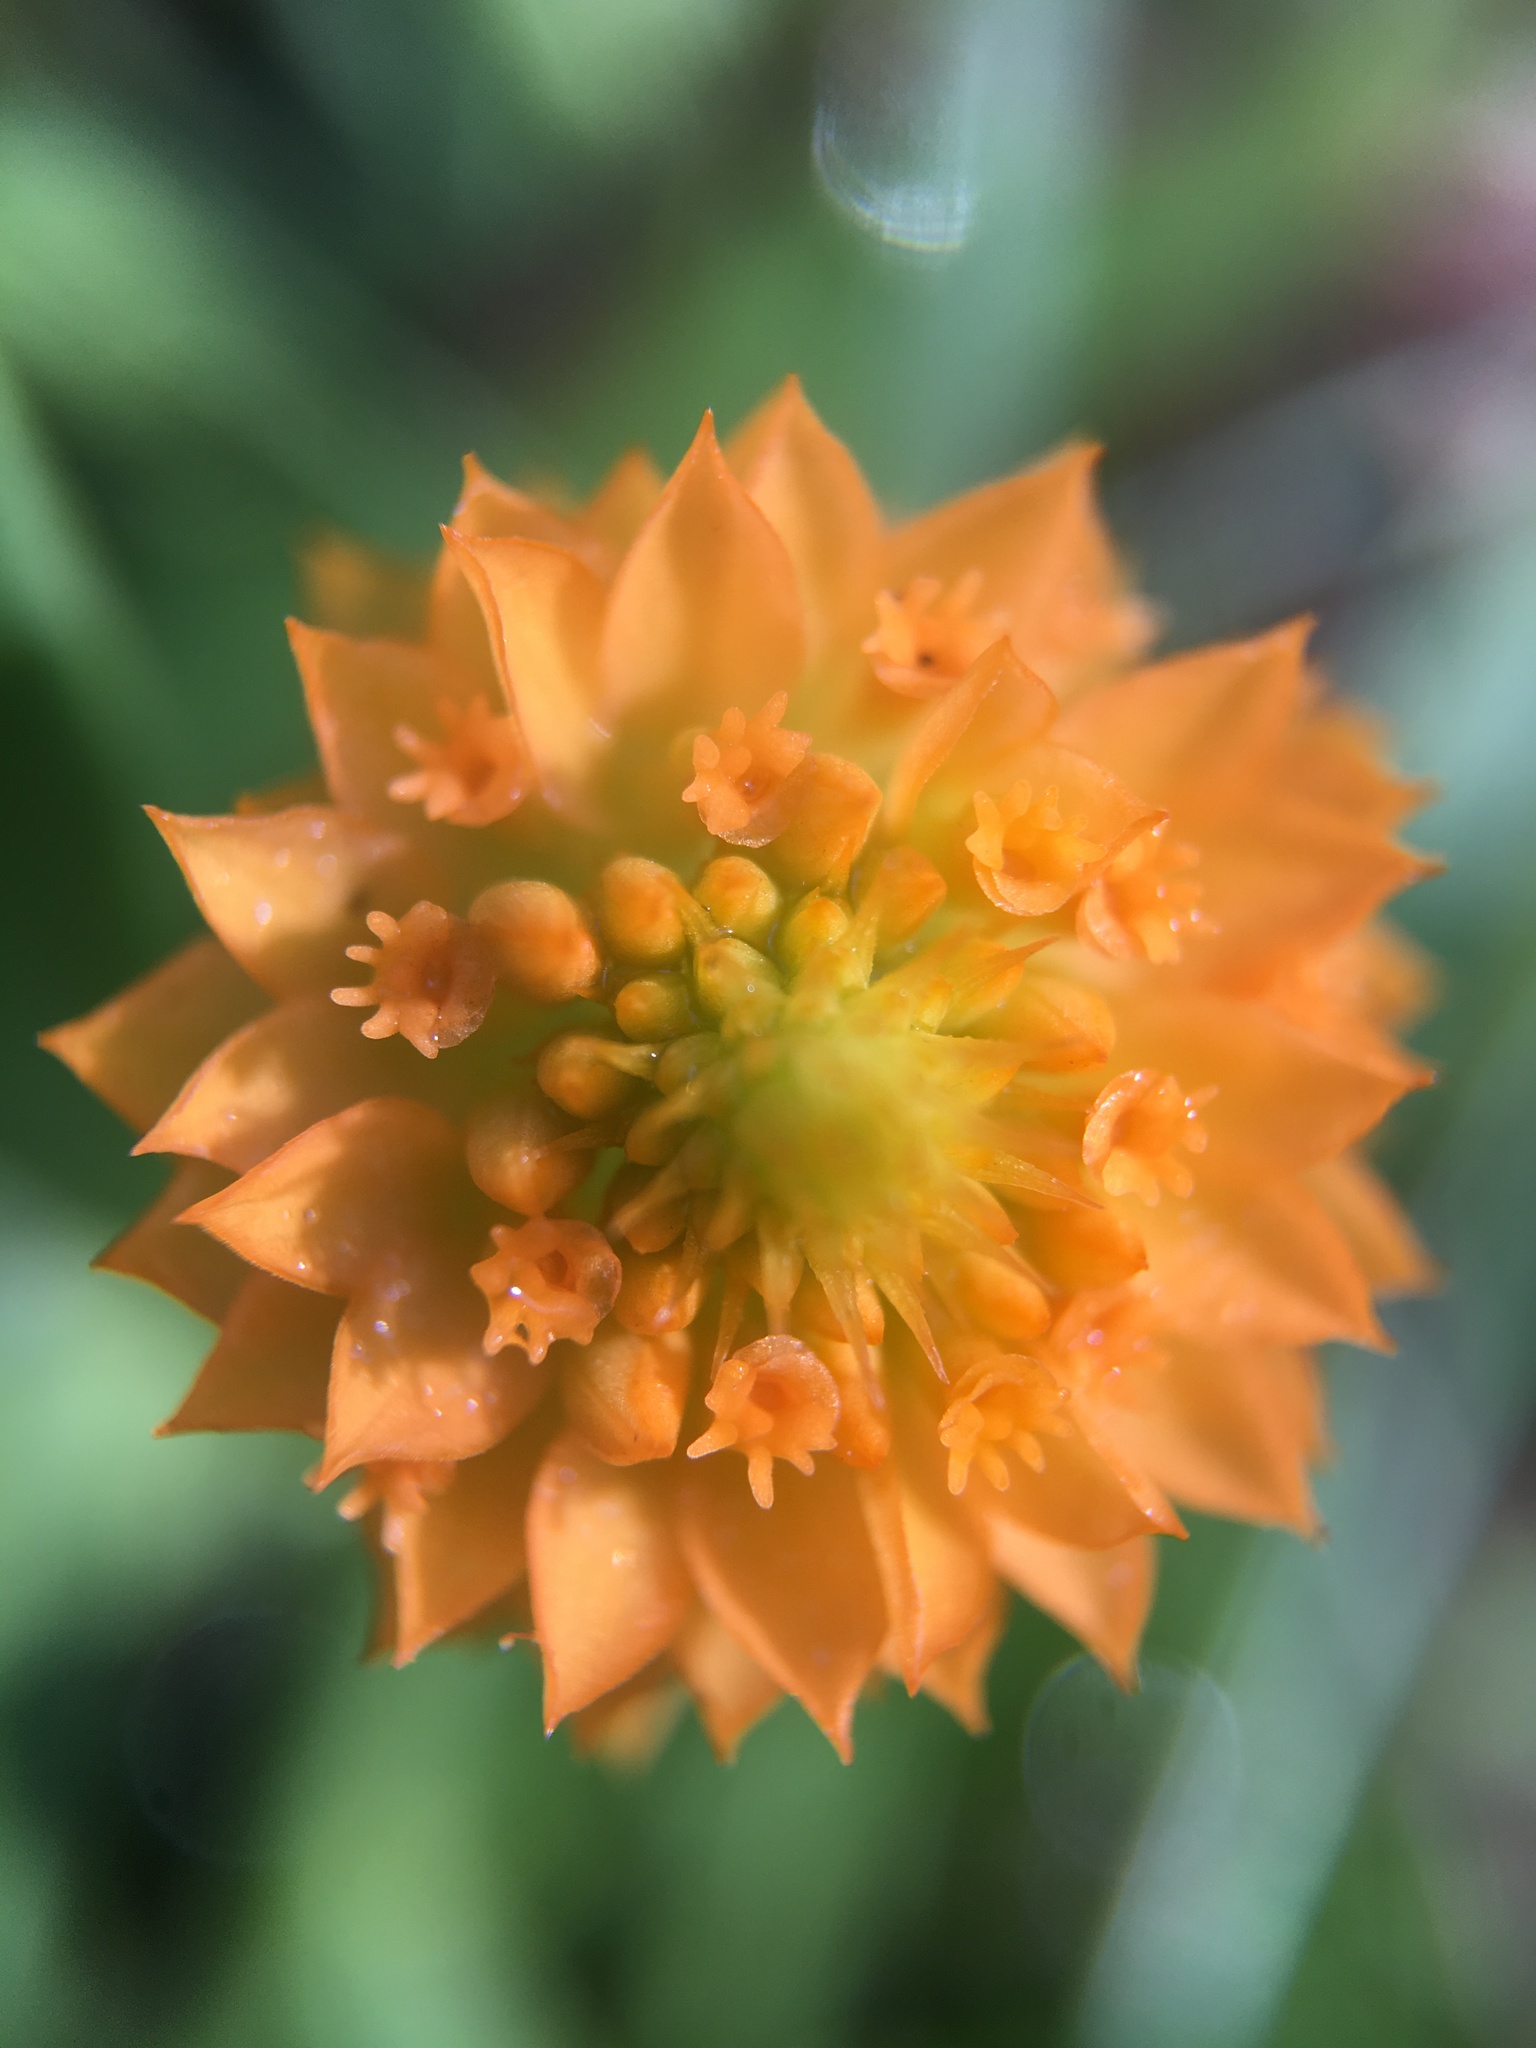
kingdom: Plantae
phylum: Tracheophyta
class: Magnoliopsida
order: Fabales
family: Polygalaceae
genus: Polygala
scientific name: Polygala lutea
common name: Orange milkwort
